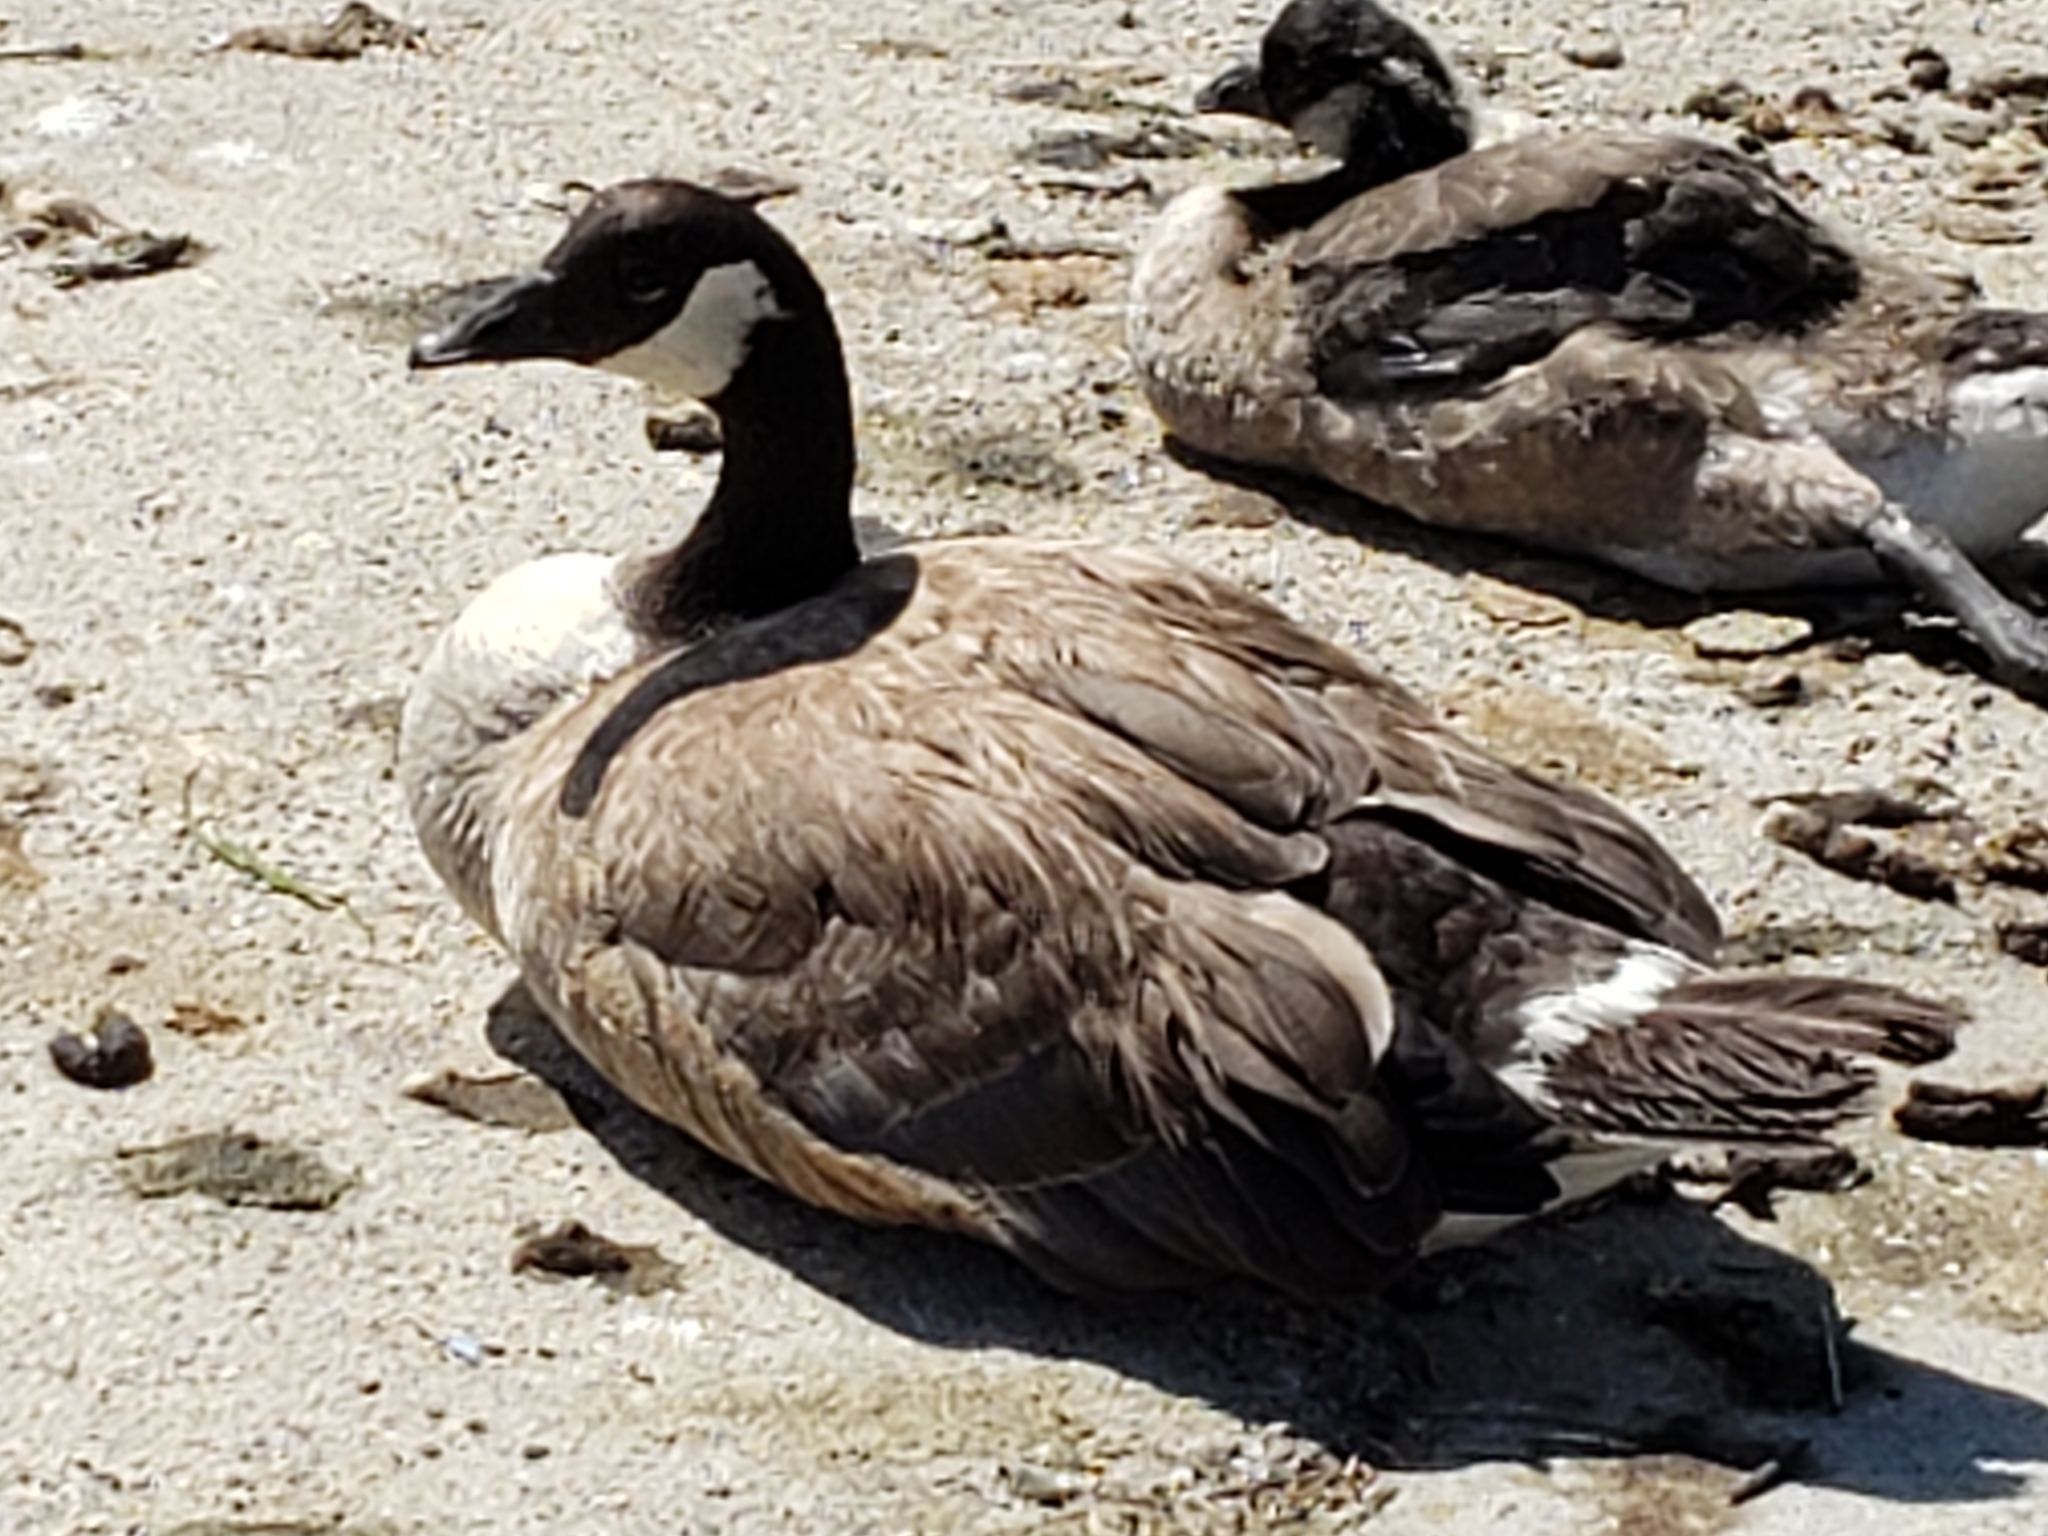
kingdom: Animalia
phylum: Chordata
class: Aves
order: Anseriformes
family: Anatidae
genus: Branta
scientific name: Branta canadensis
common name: Canada goose
